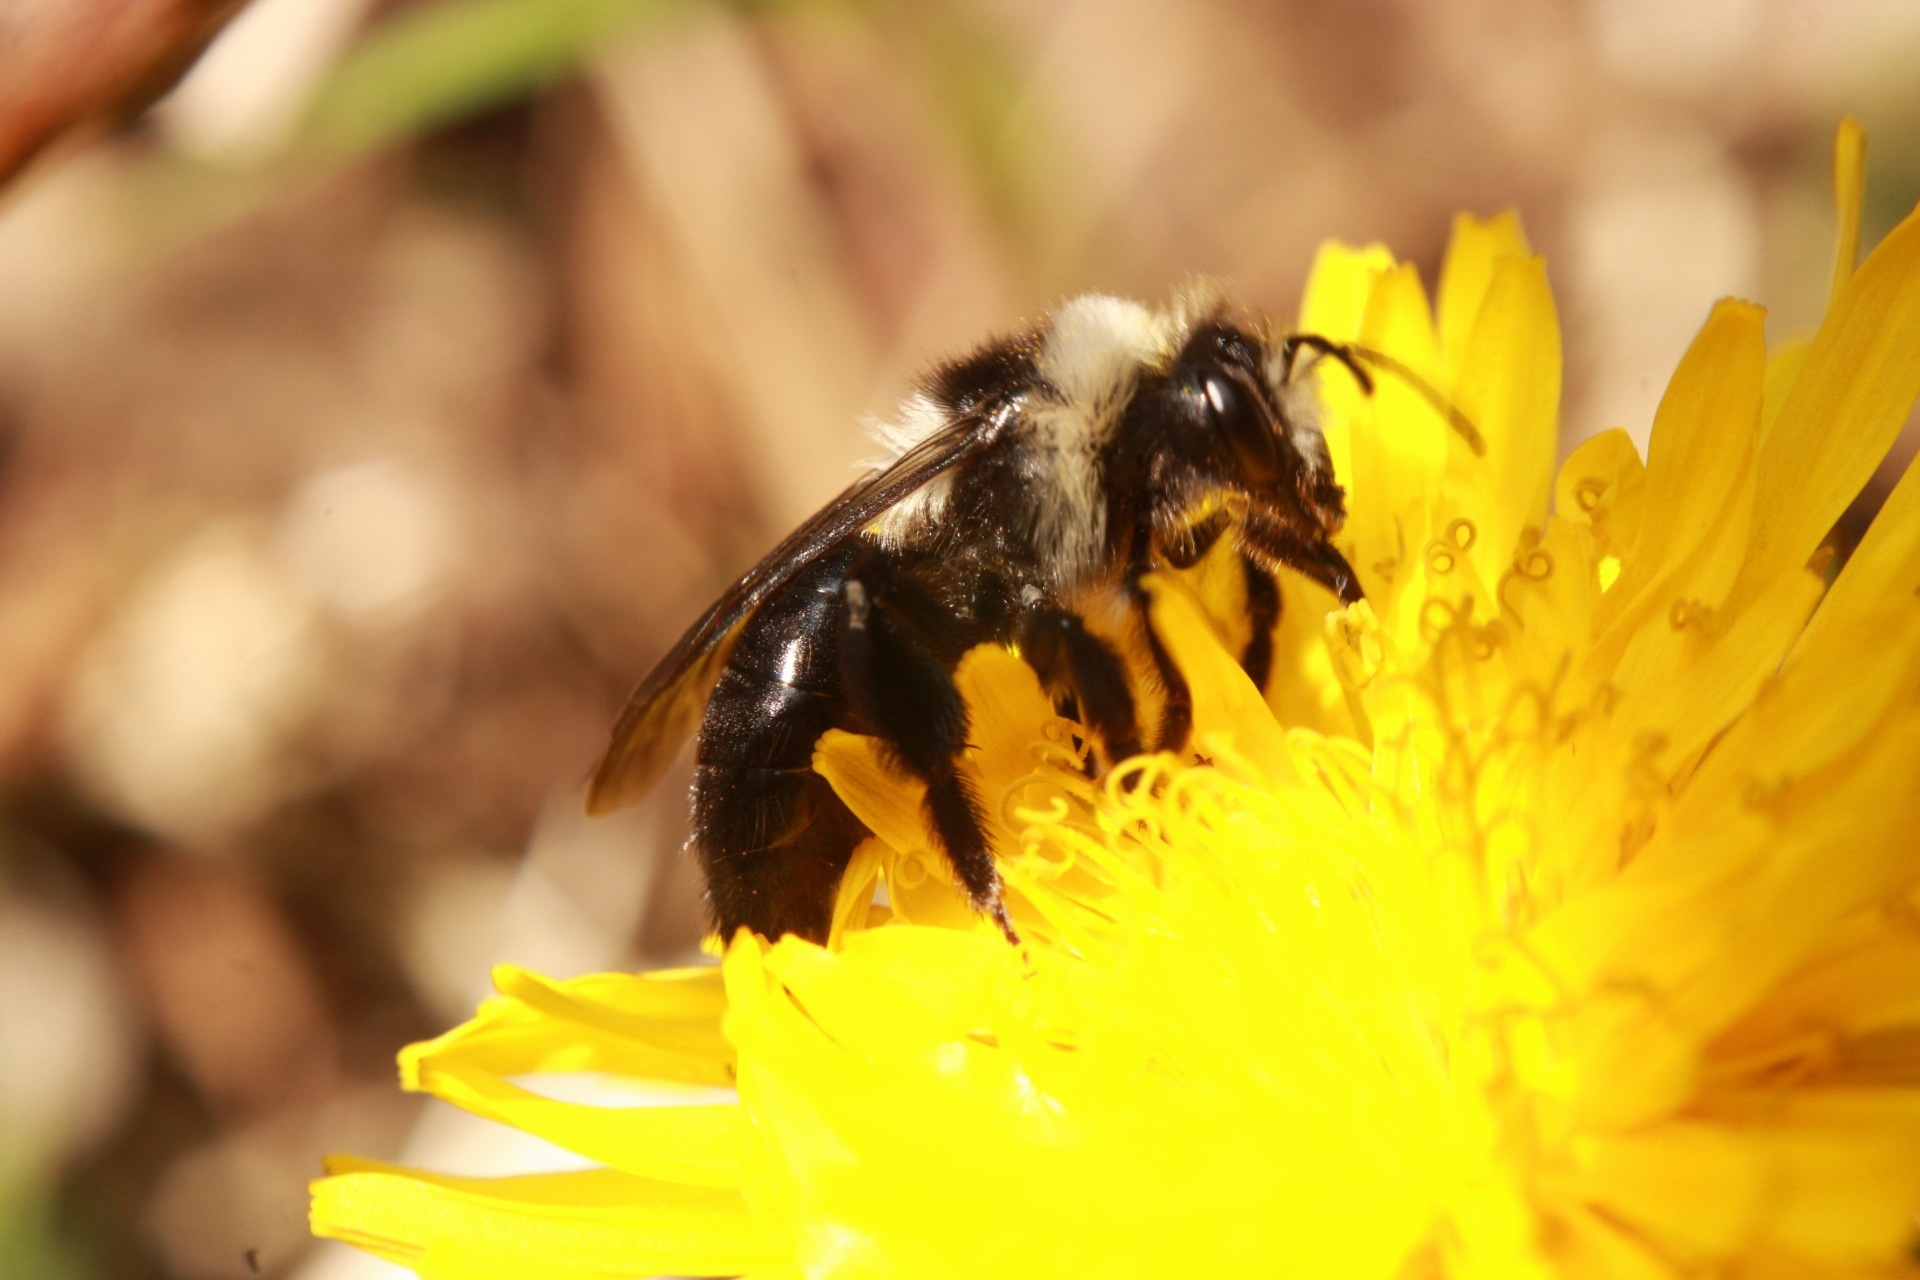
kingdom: Animalia
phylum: Arthropoda
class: Insecta
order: Hymenoptera
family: Andrenidae
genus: Andrena
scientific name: Andrena cineraria
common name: Ashy mining bee
